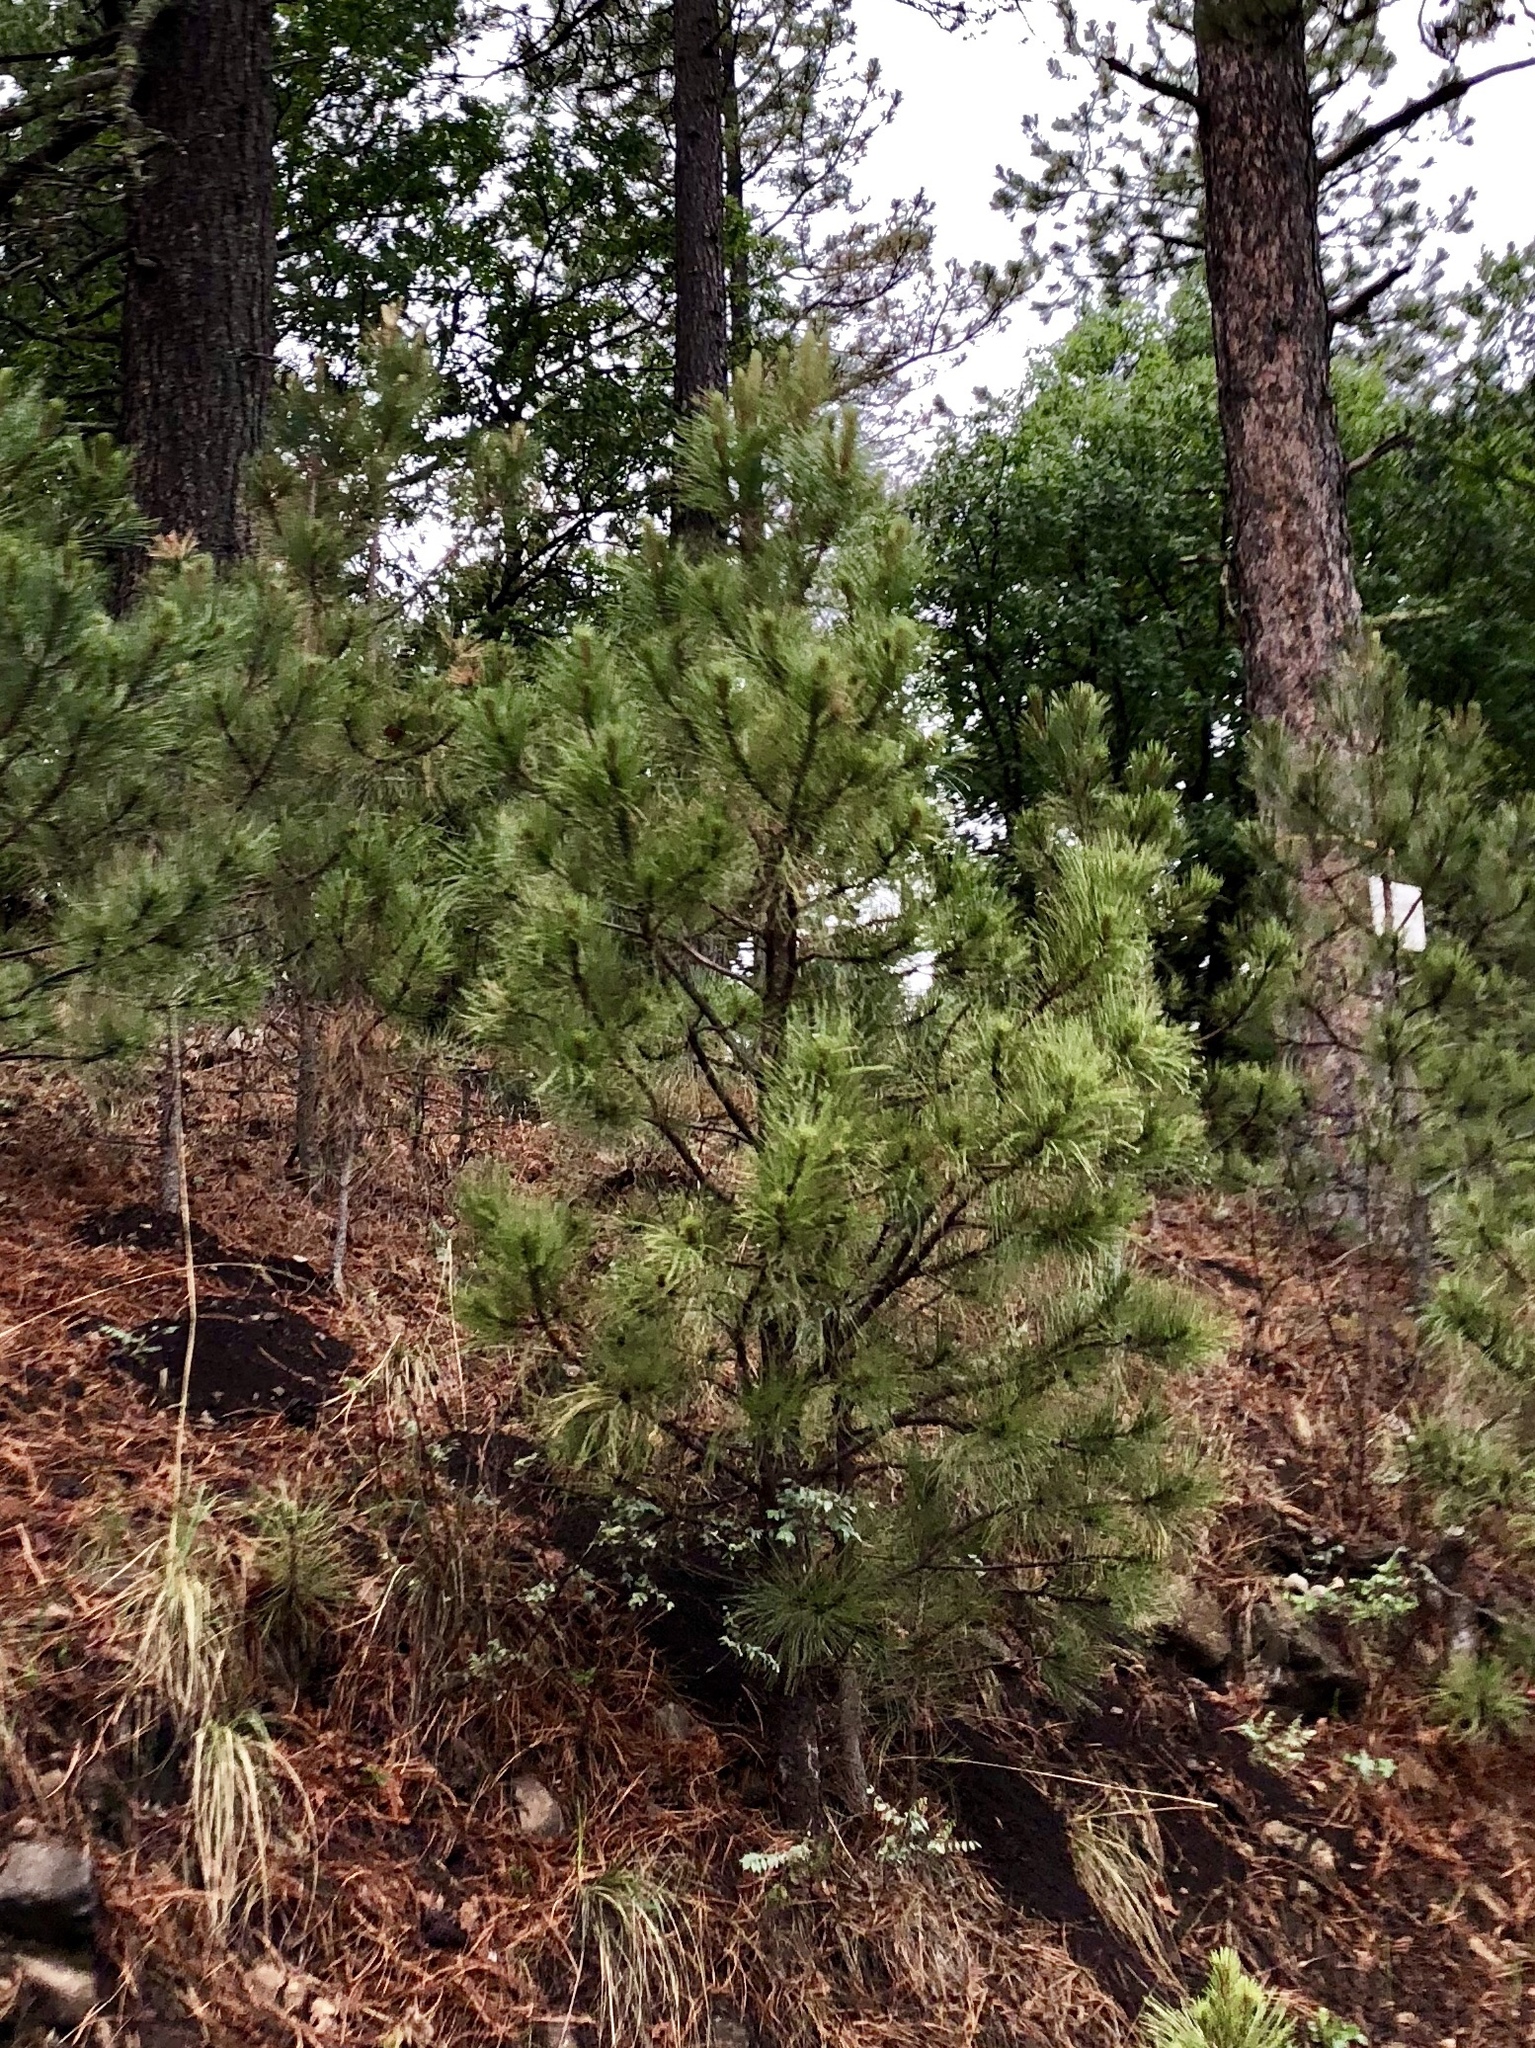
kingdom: Plantae
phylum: Tracheophyta
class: Pinopsida
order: Pinales
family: Pinaceae
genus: Pinus
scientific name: Pinus ponderosa
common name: Western yellow-pine
